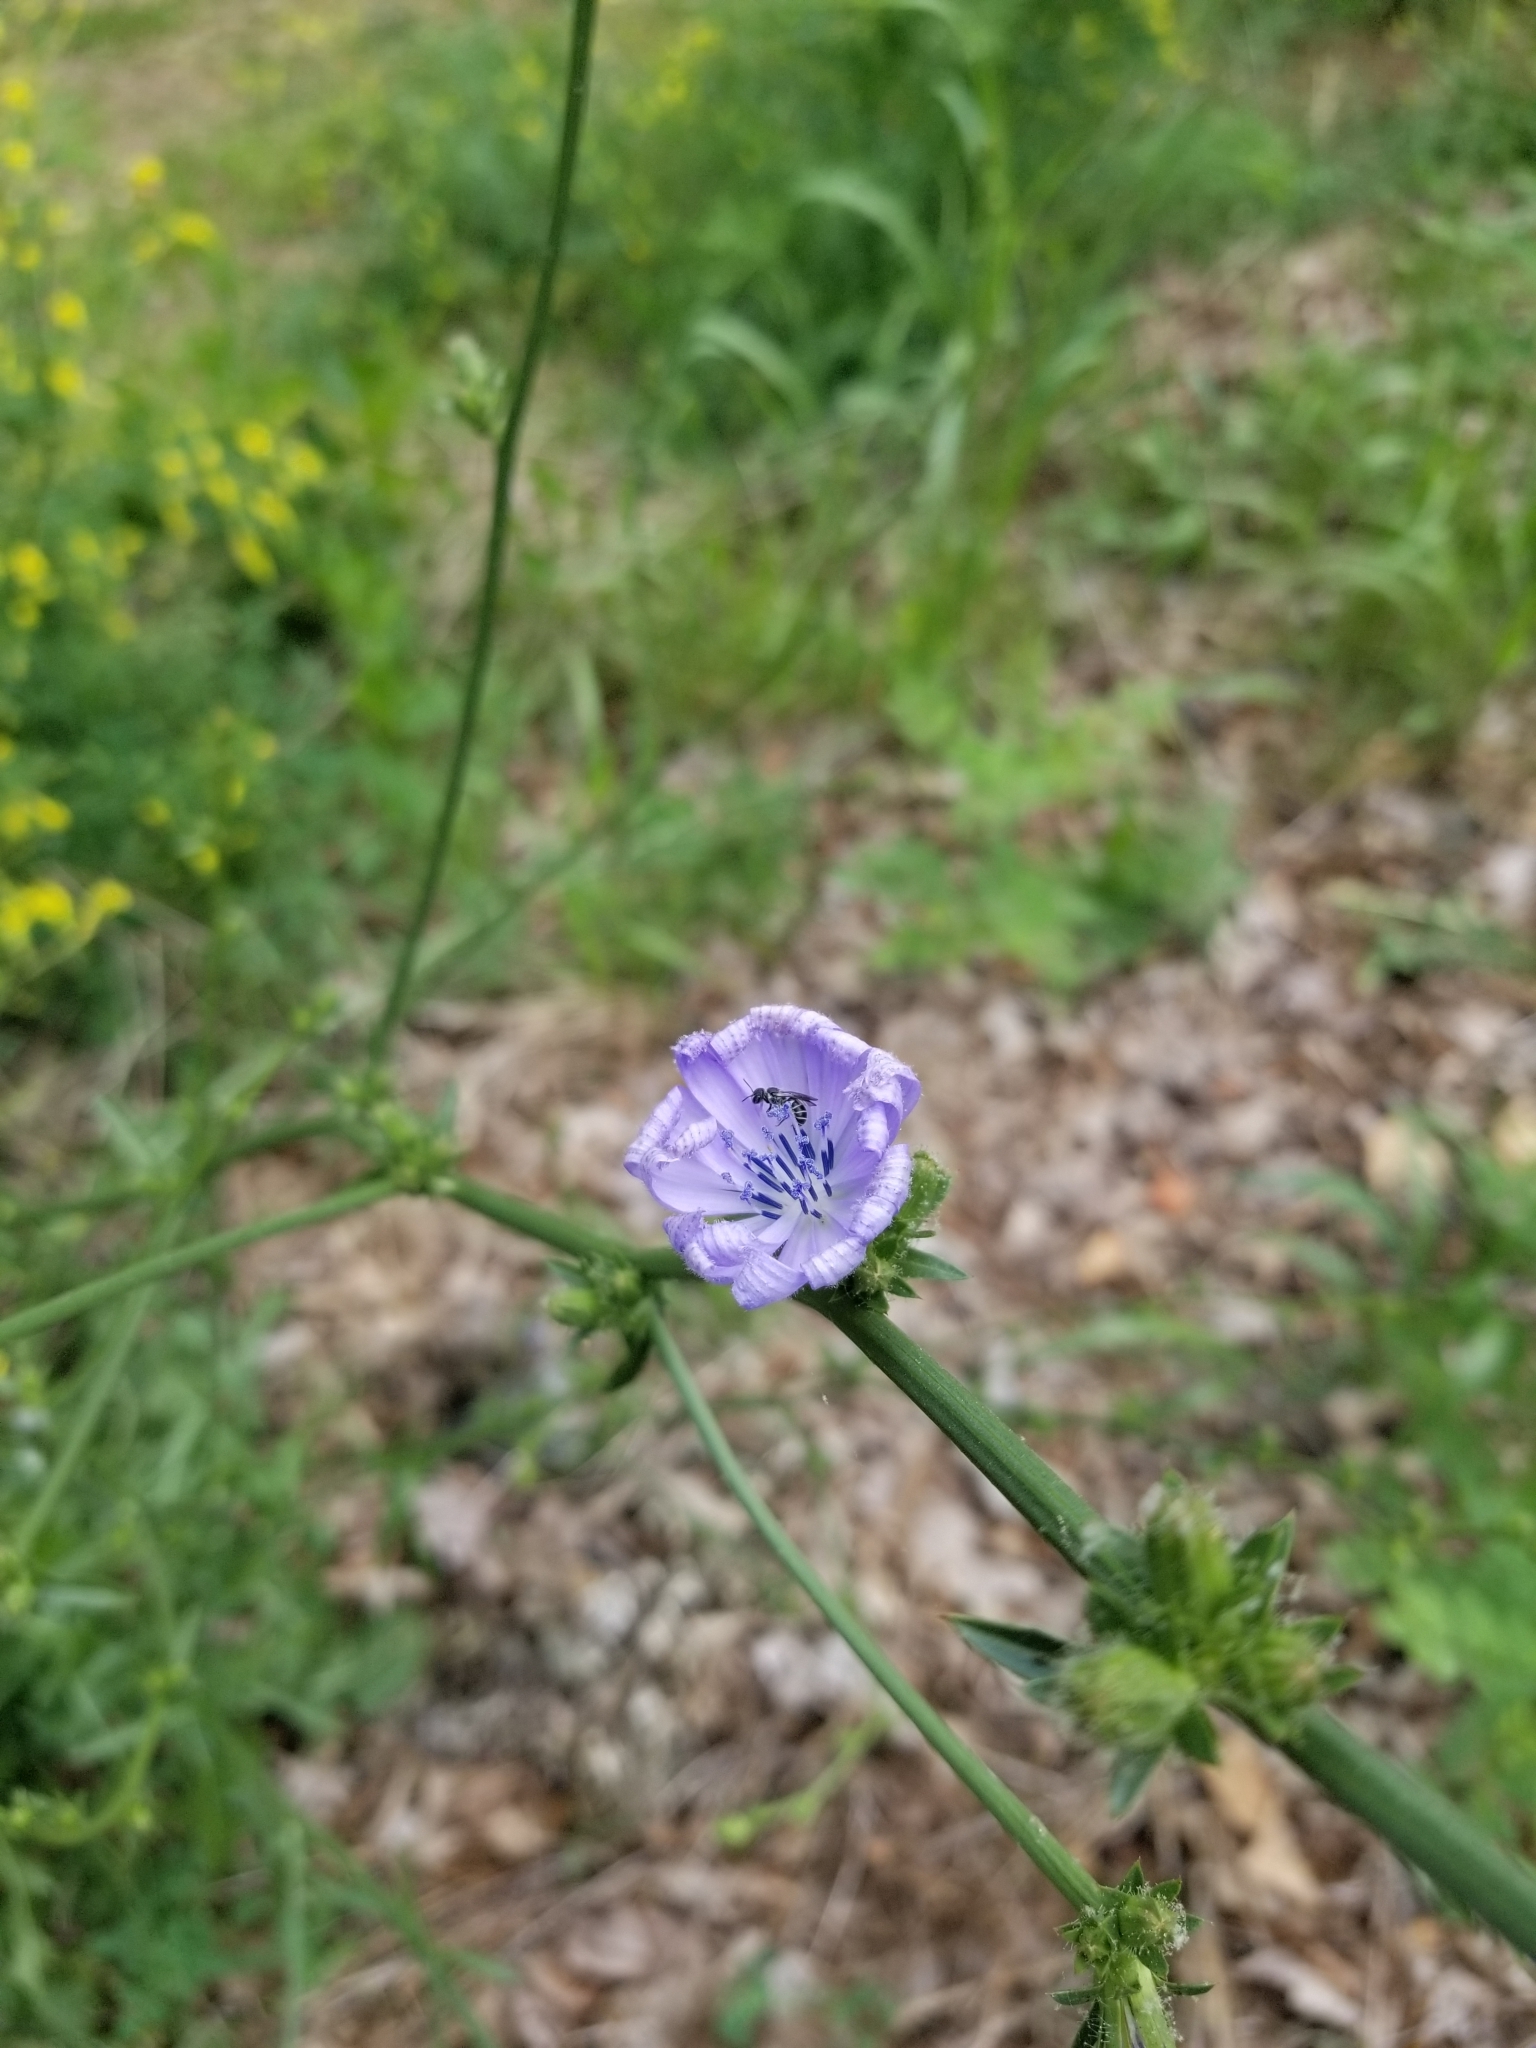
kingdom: Plantae
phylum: Tracheophyta
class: Magnoliopsida
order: Asterales
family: Asteraceae
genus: Cichorium
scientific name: Cichorium intybus
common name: Chicory
